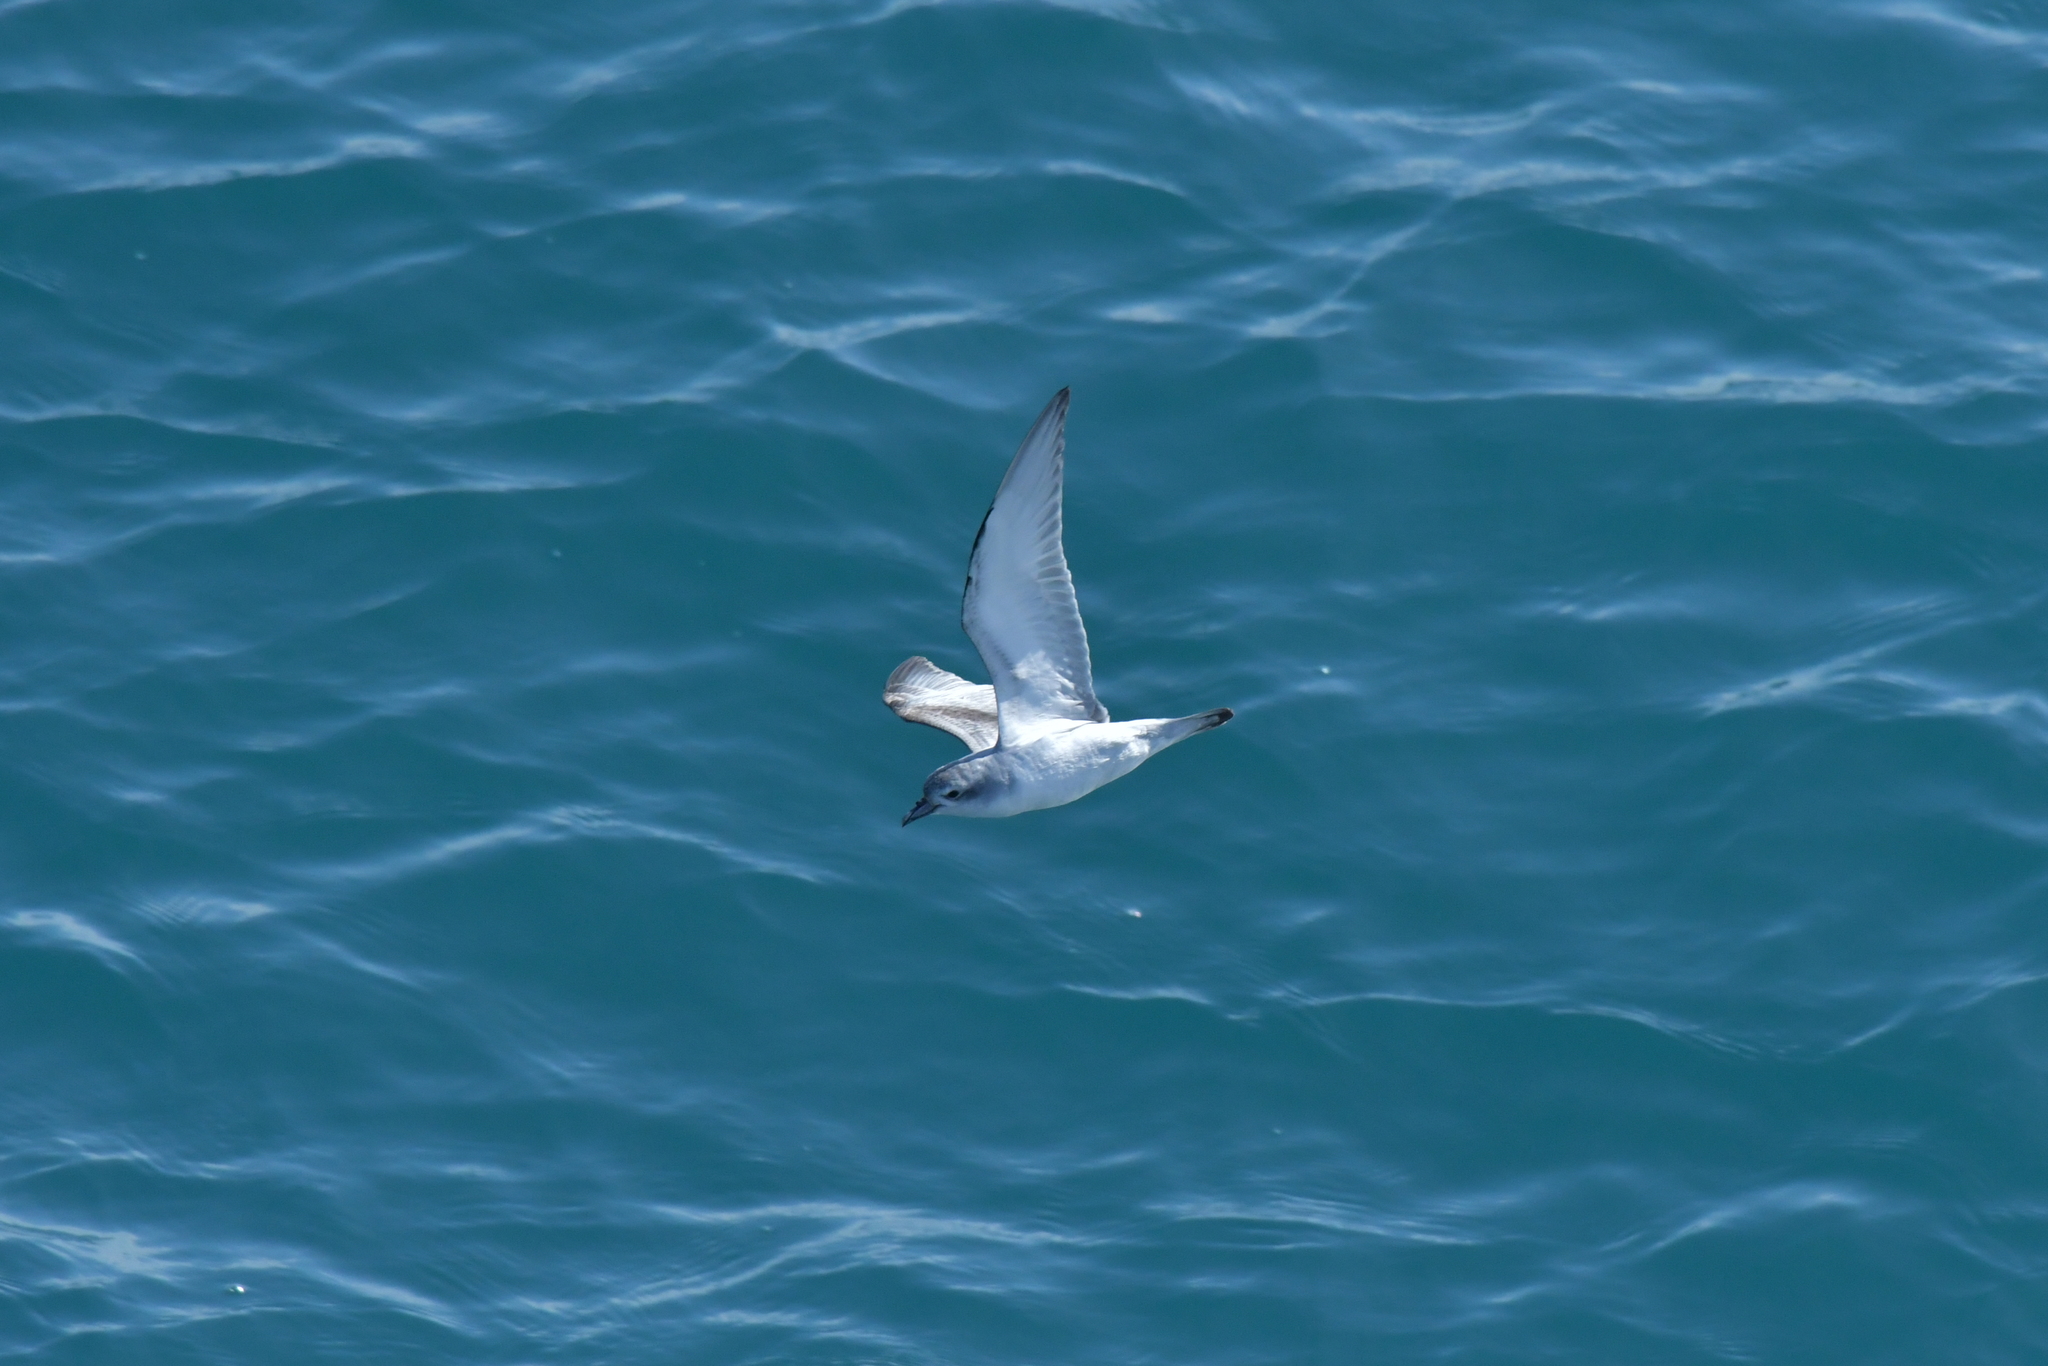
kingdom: Animalia
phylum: Chordata
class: Aves
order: Procellariiformes
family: Procellariidae
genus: Pachyptila
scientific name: Pachyptila turtur
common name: Fairy prion
